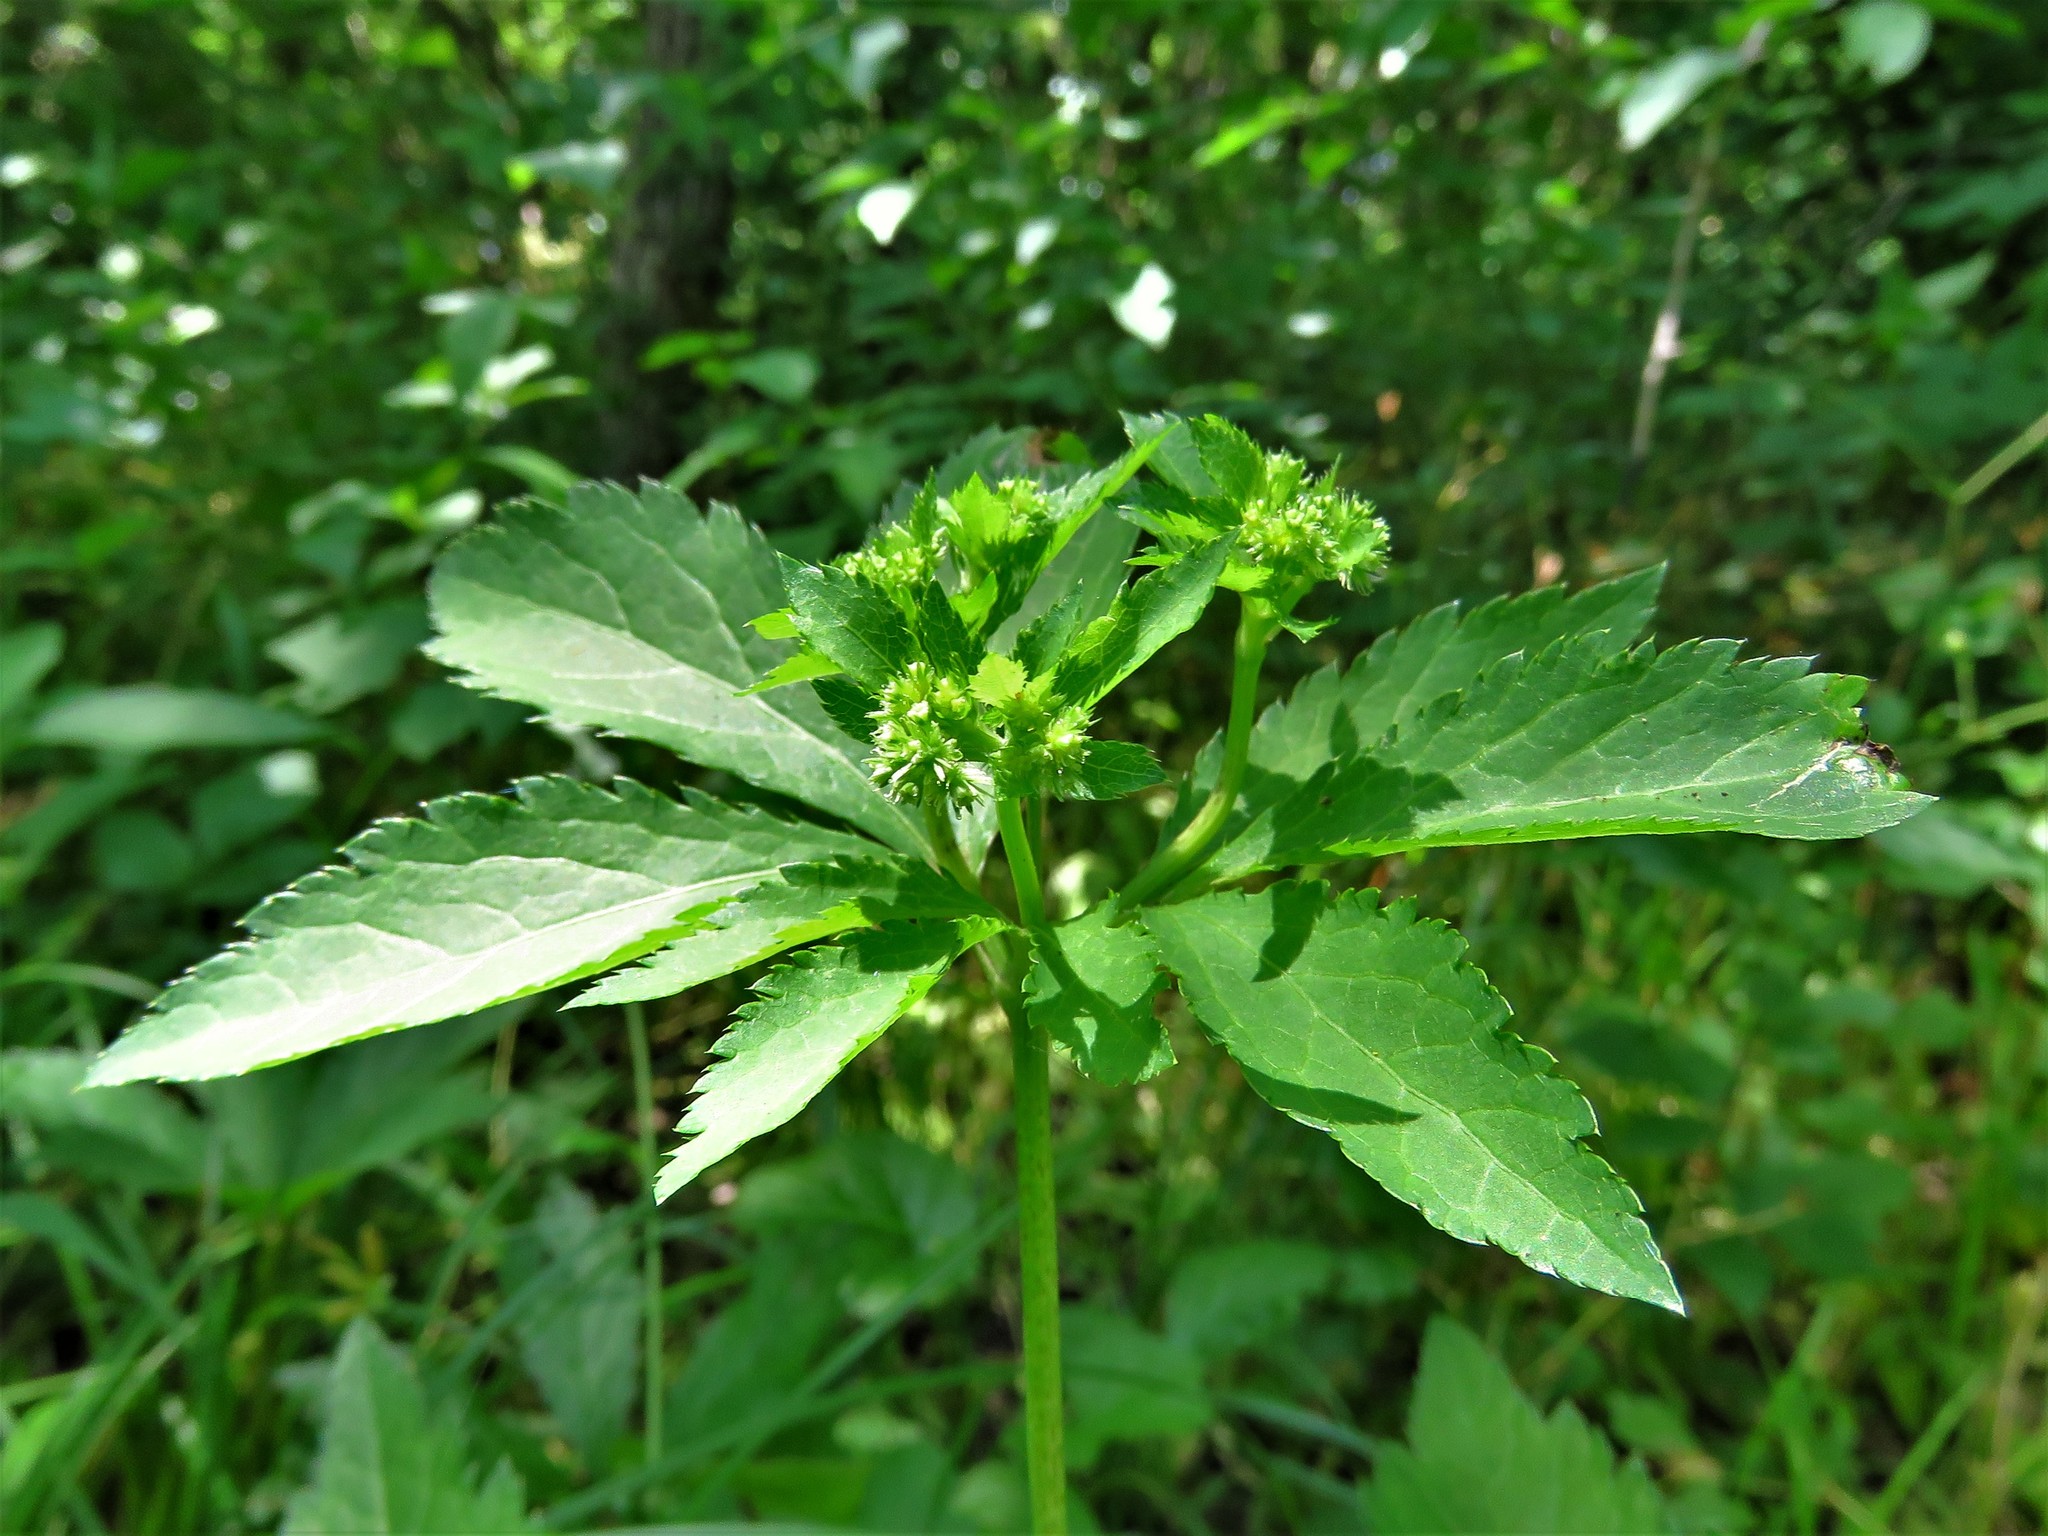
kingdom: Plantae
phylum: Tracheophyta
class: Magnoliopsida
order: Apiales
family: Apiaceae
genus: Sanicula
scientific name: Sanicula canadensis
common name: Canada sanicle
